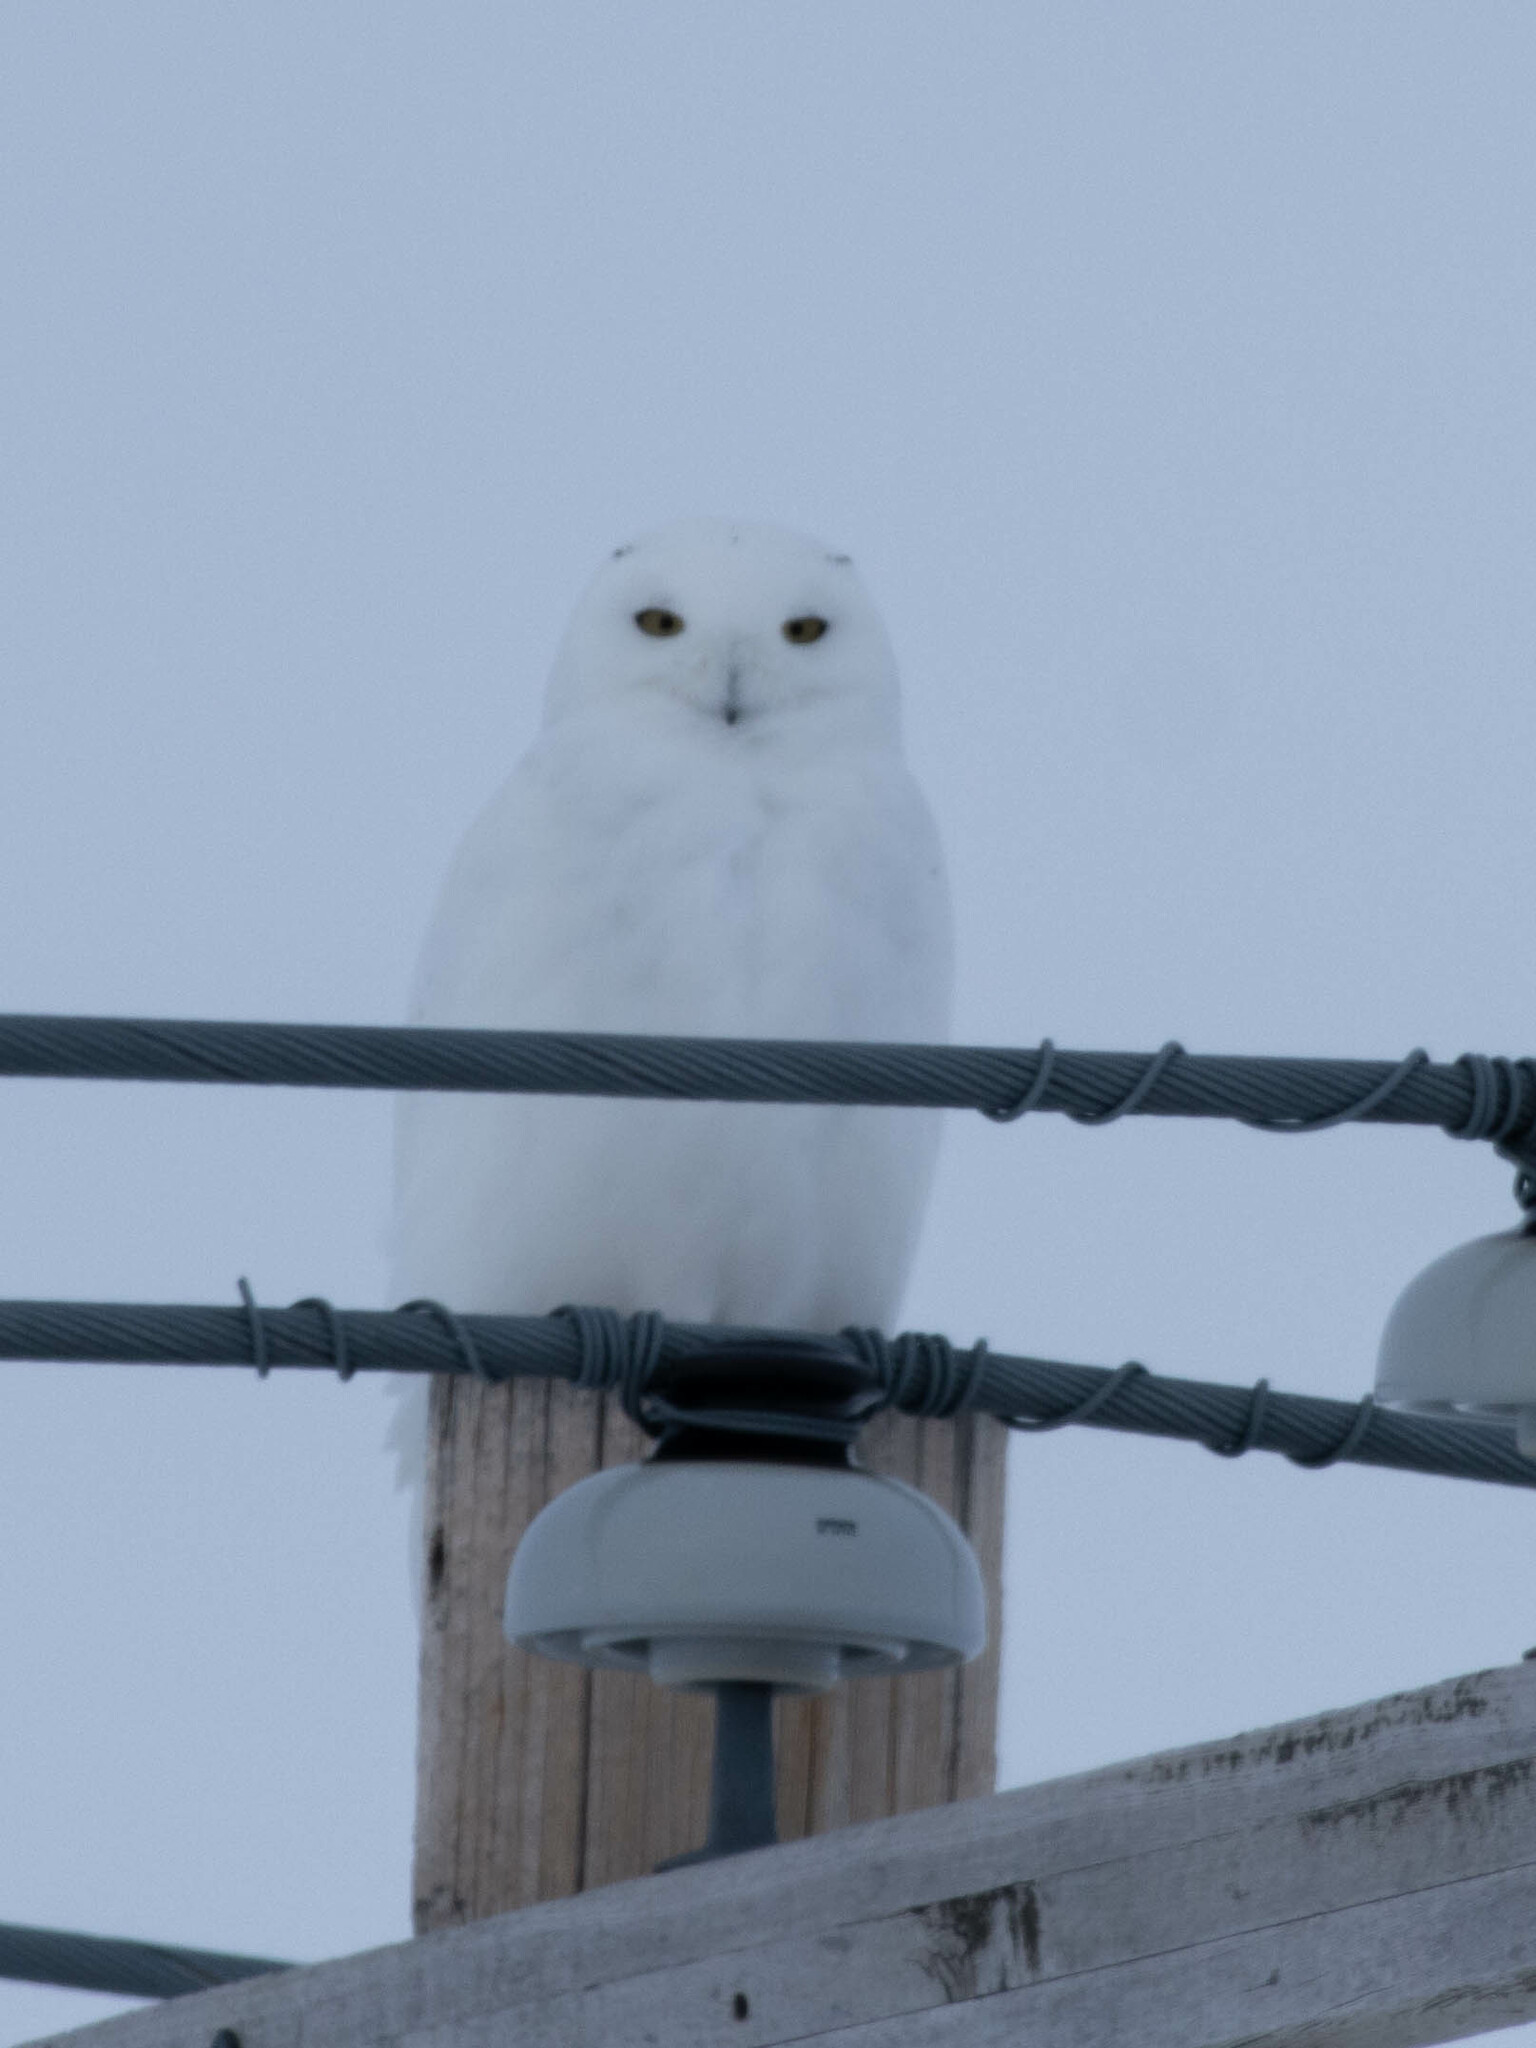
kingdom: Animalia
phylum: Chordata
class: Aves
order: Strigiformes
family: Strigidae
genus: Bubo
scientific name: Bubo scandiacus
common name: Snowy owl
